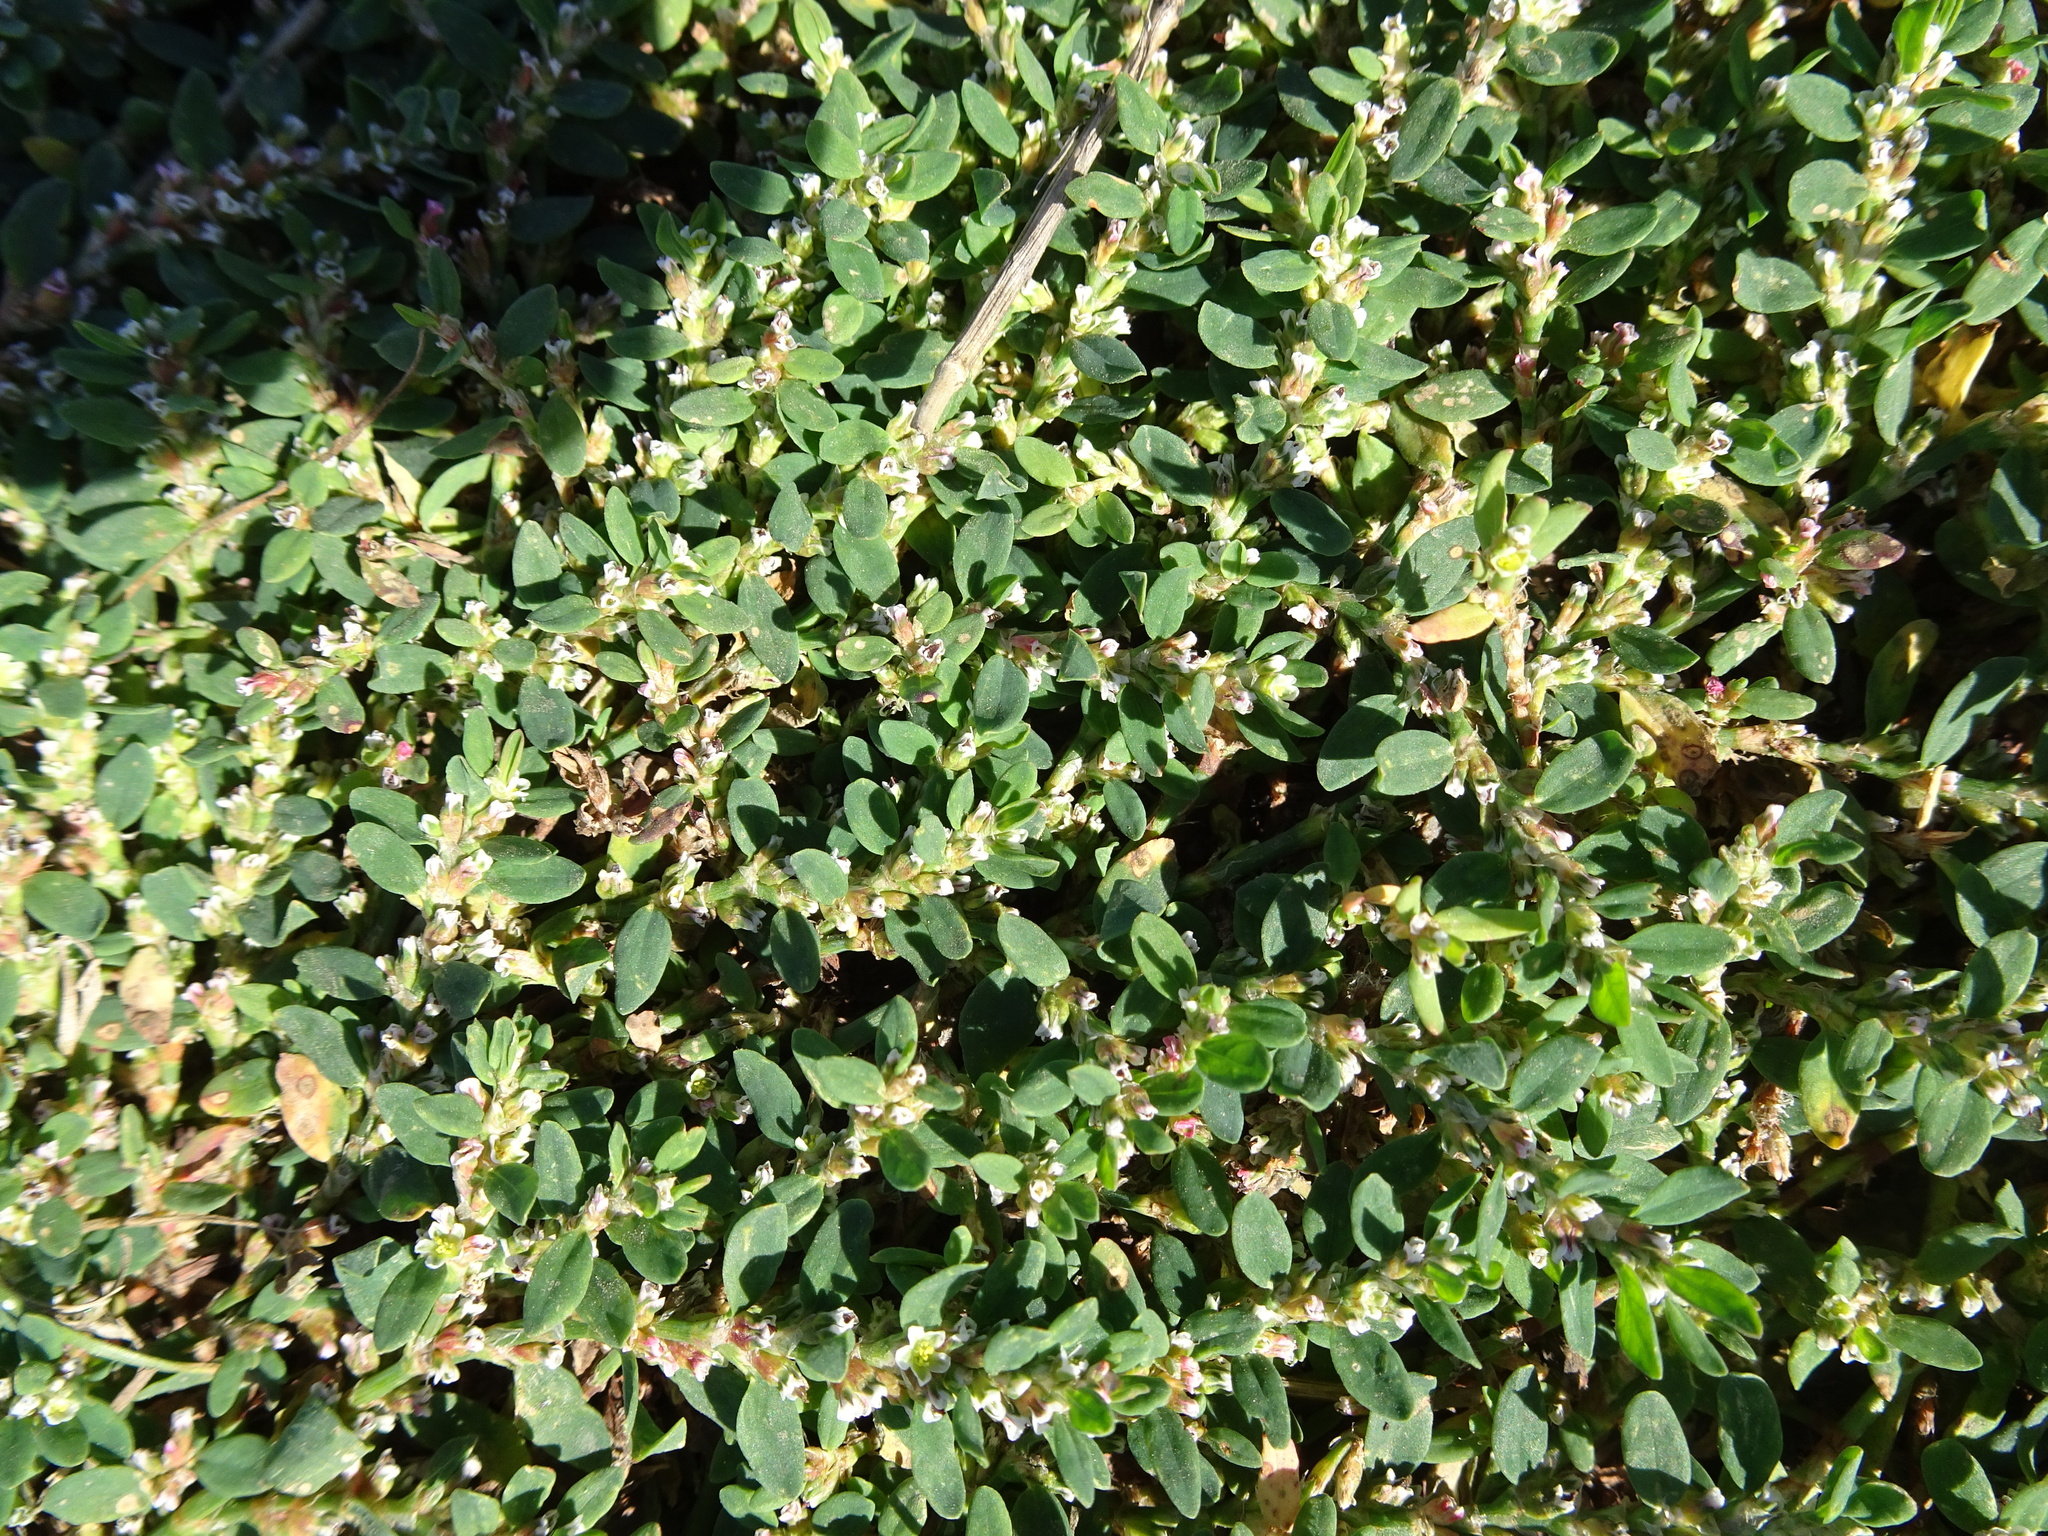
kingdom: Plantae
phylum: Tracheophyta
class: Magnoliopsida
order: Caryophyllales
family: Polygonaceae
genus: Polygonum
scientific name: Polygonum arenastrum
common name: Equal-leaved knotgrass
